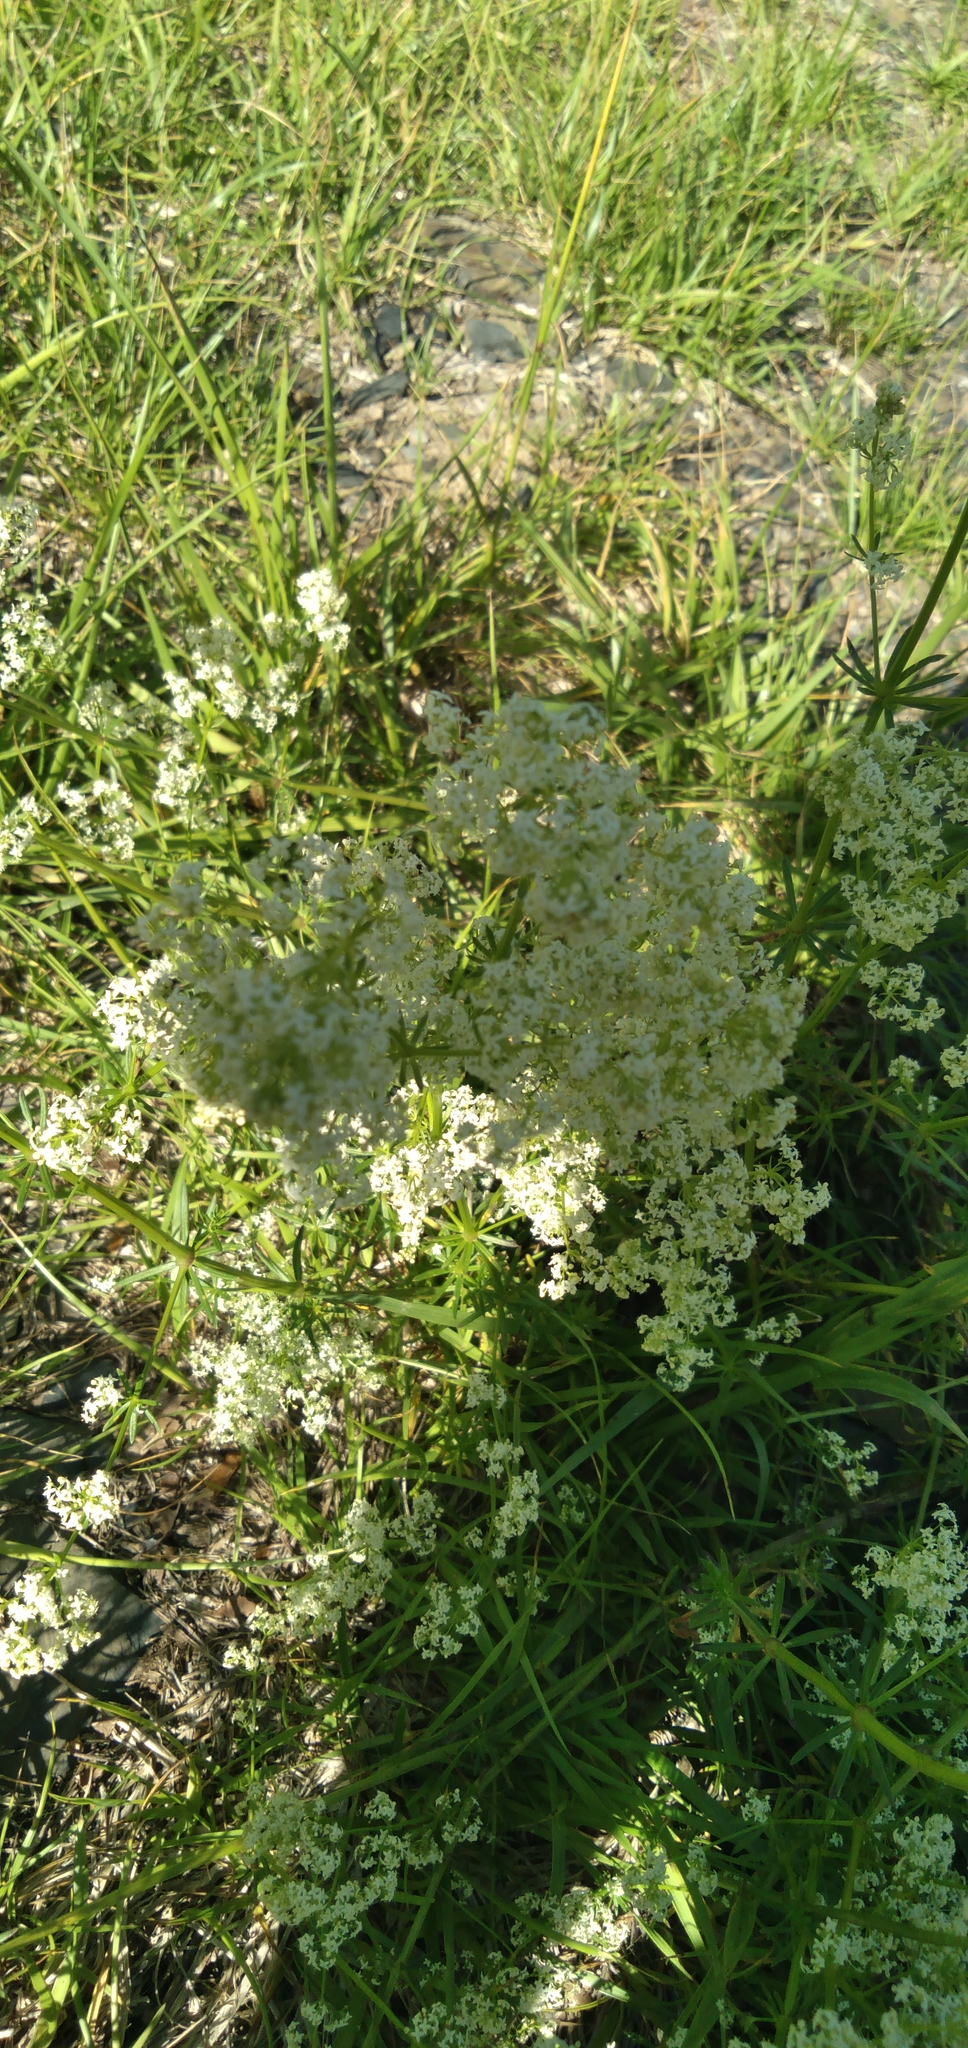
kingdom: Plantae
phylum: Tracheophyta
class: Magnoliopsida
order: Gentianales
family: Rubiaceae
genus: Galium
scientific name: Galium mollugo
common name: Hedge bedstraw
